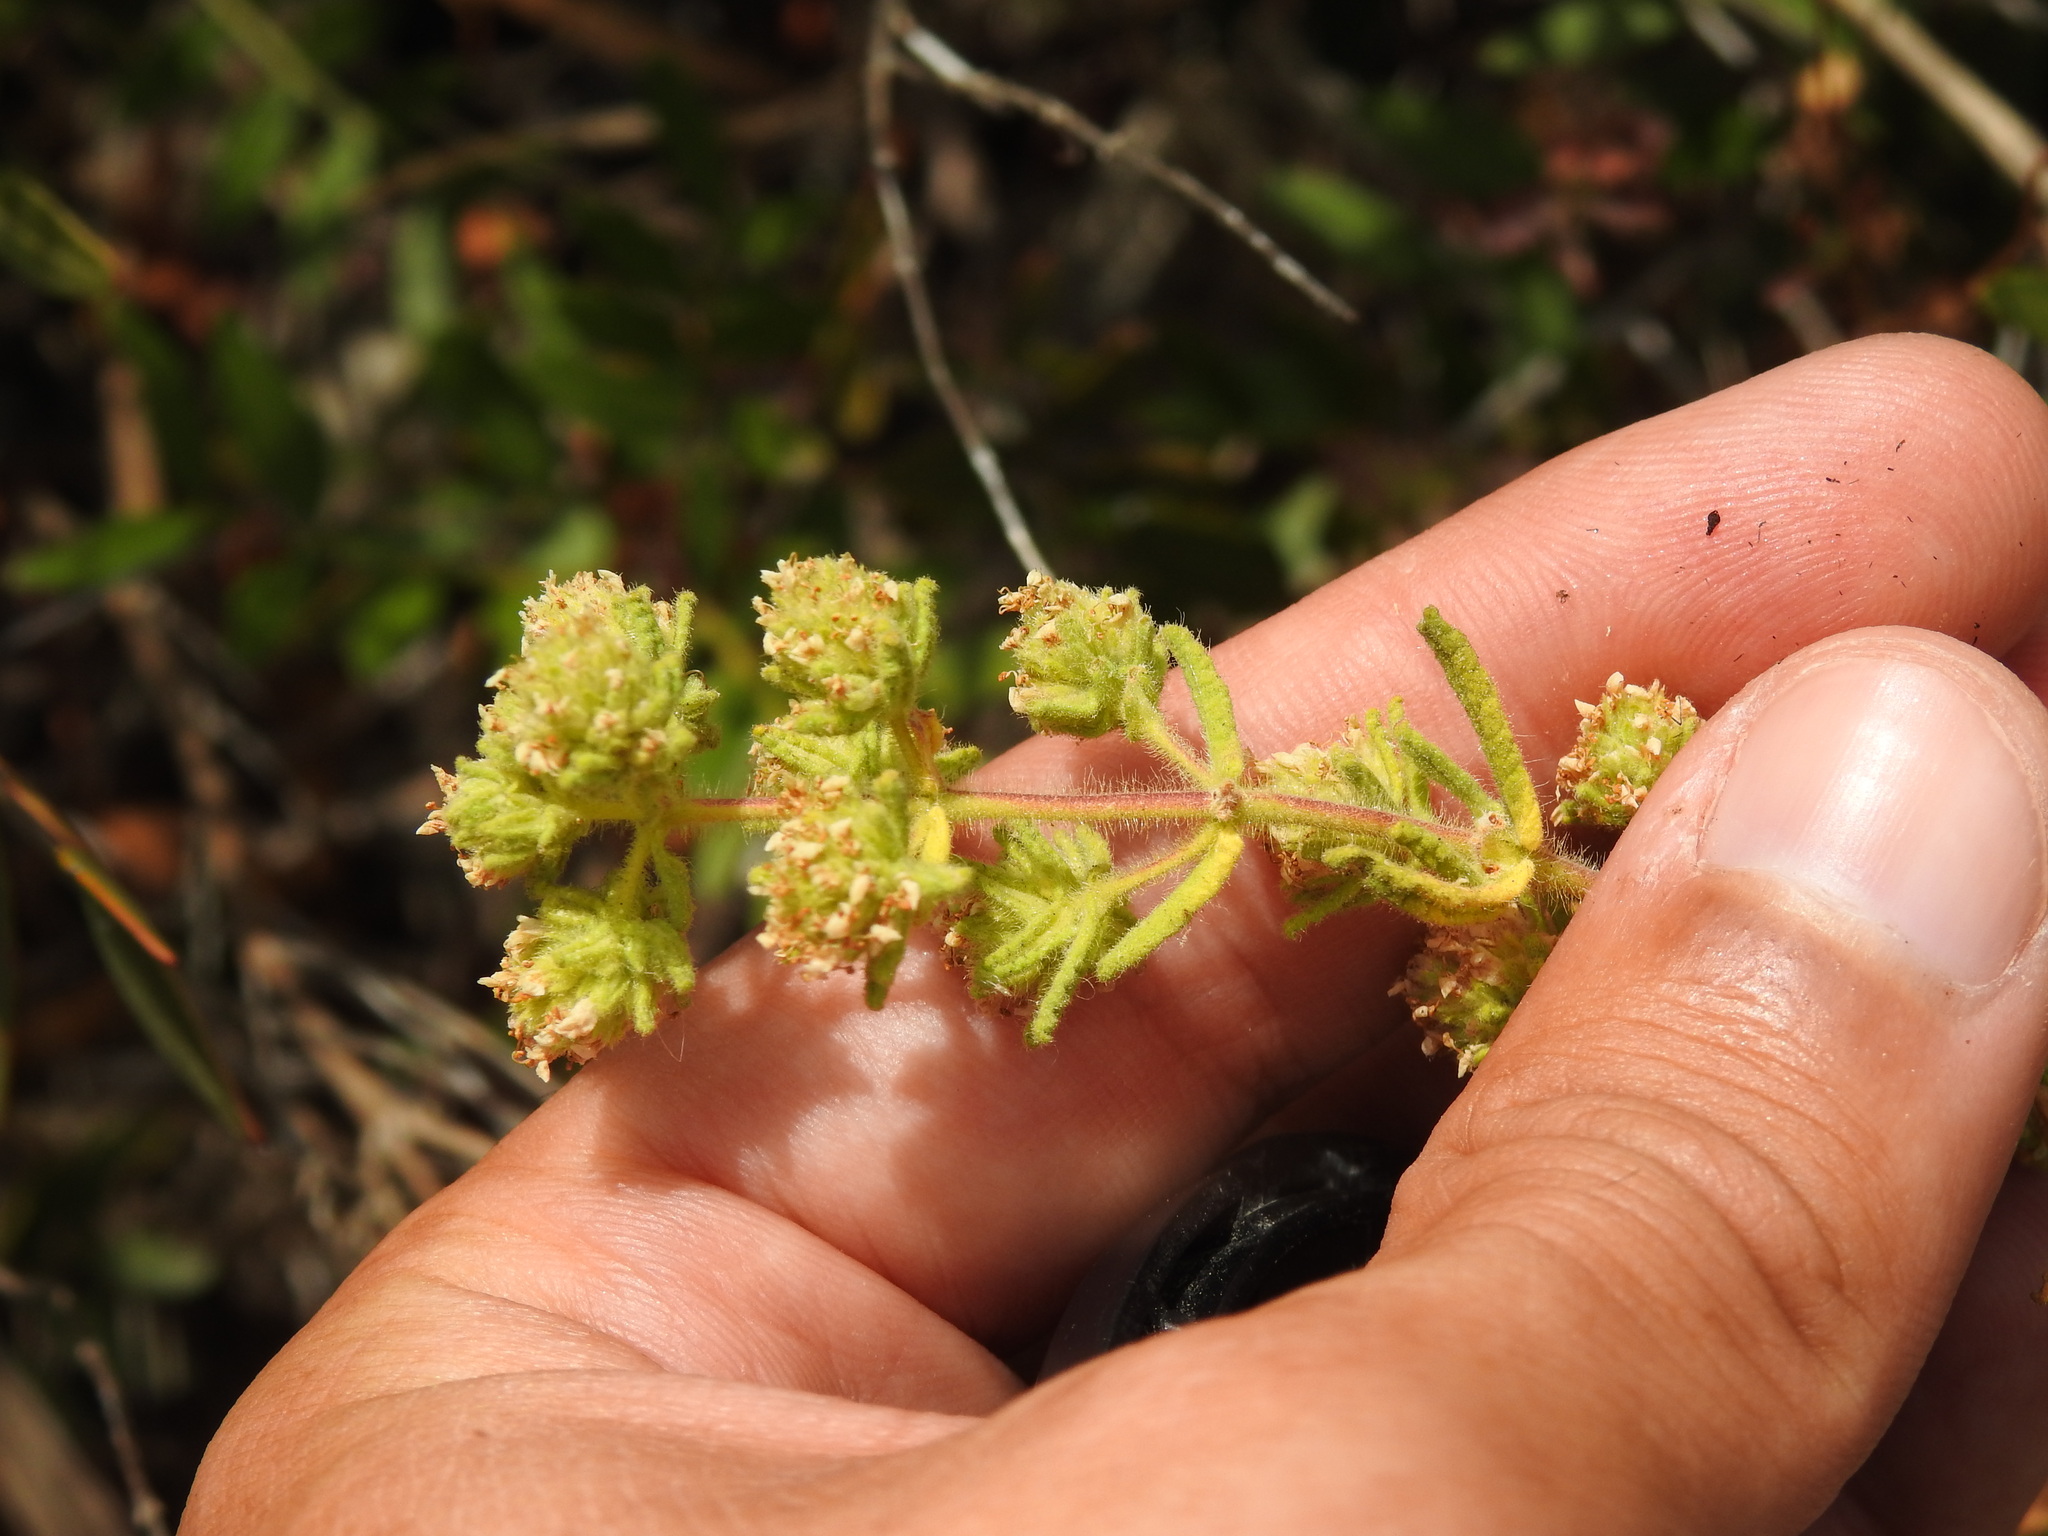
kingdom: Plantae
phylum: Tracheophyta
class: Magnoliopsida
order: Lamiales
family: Lamiaceae
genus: Teucrium
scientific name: Teucrium haenseleri
